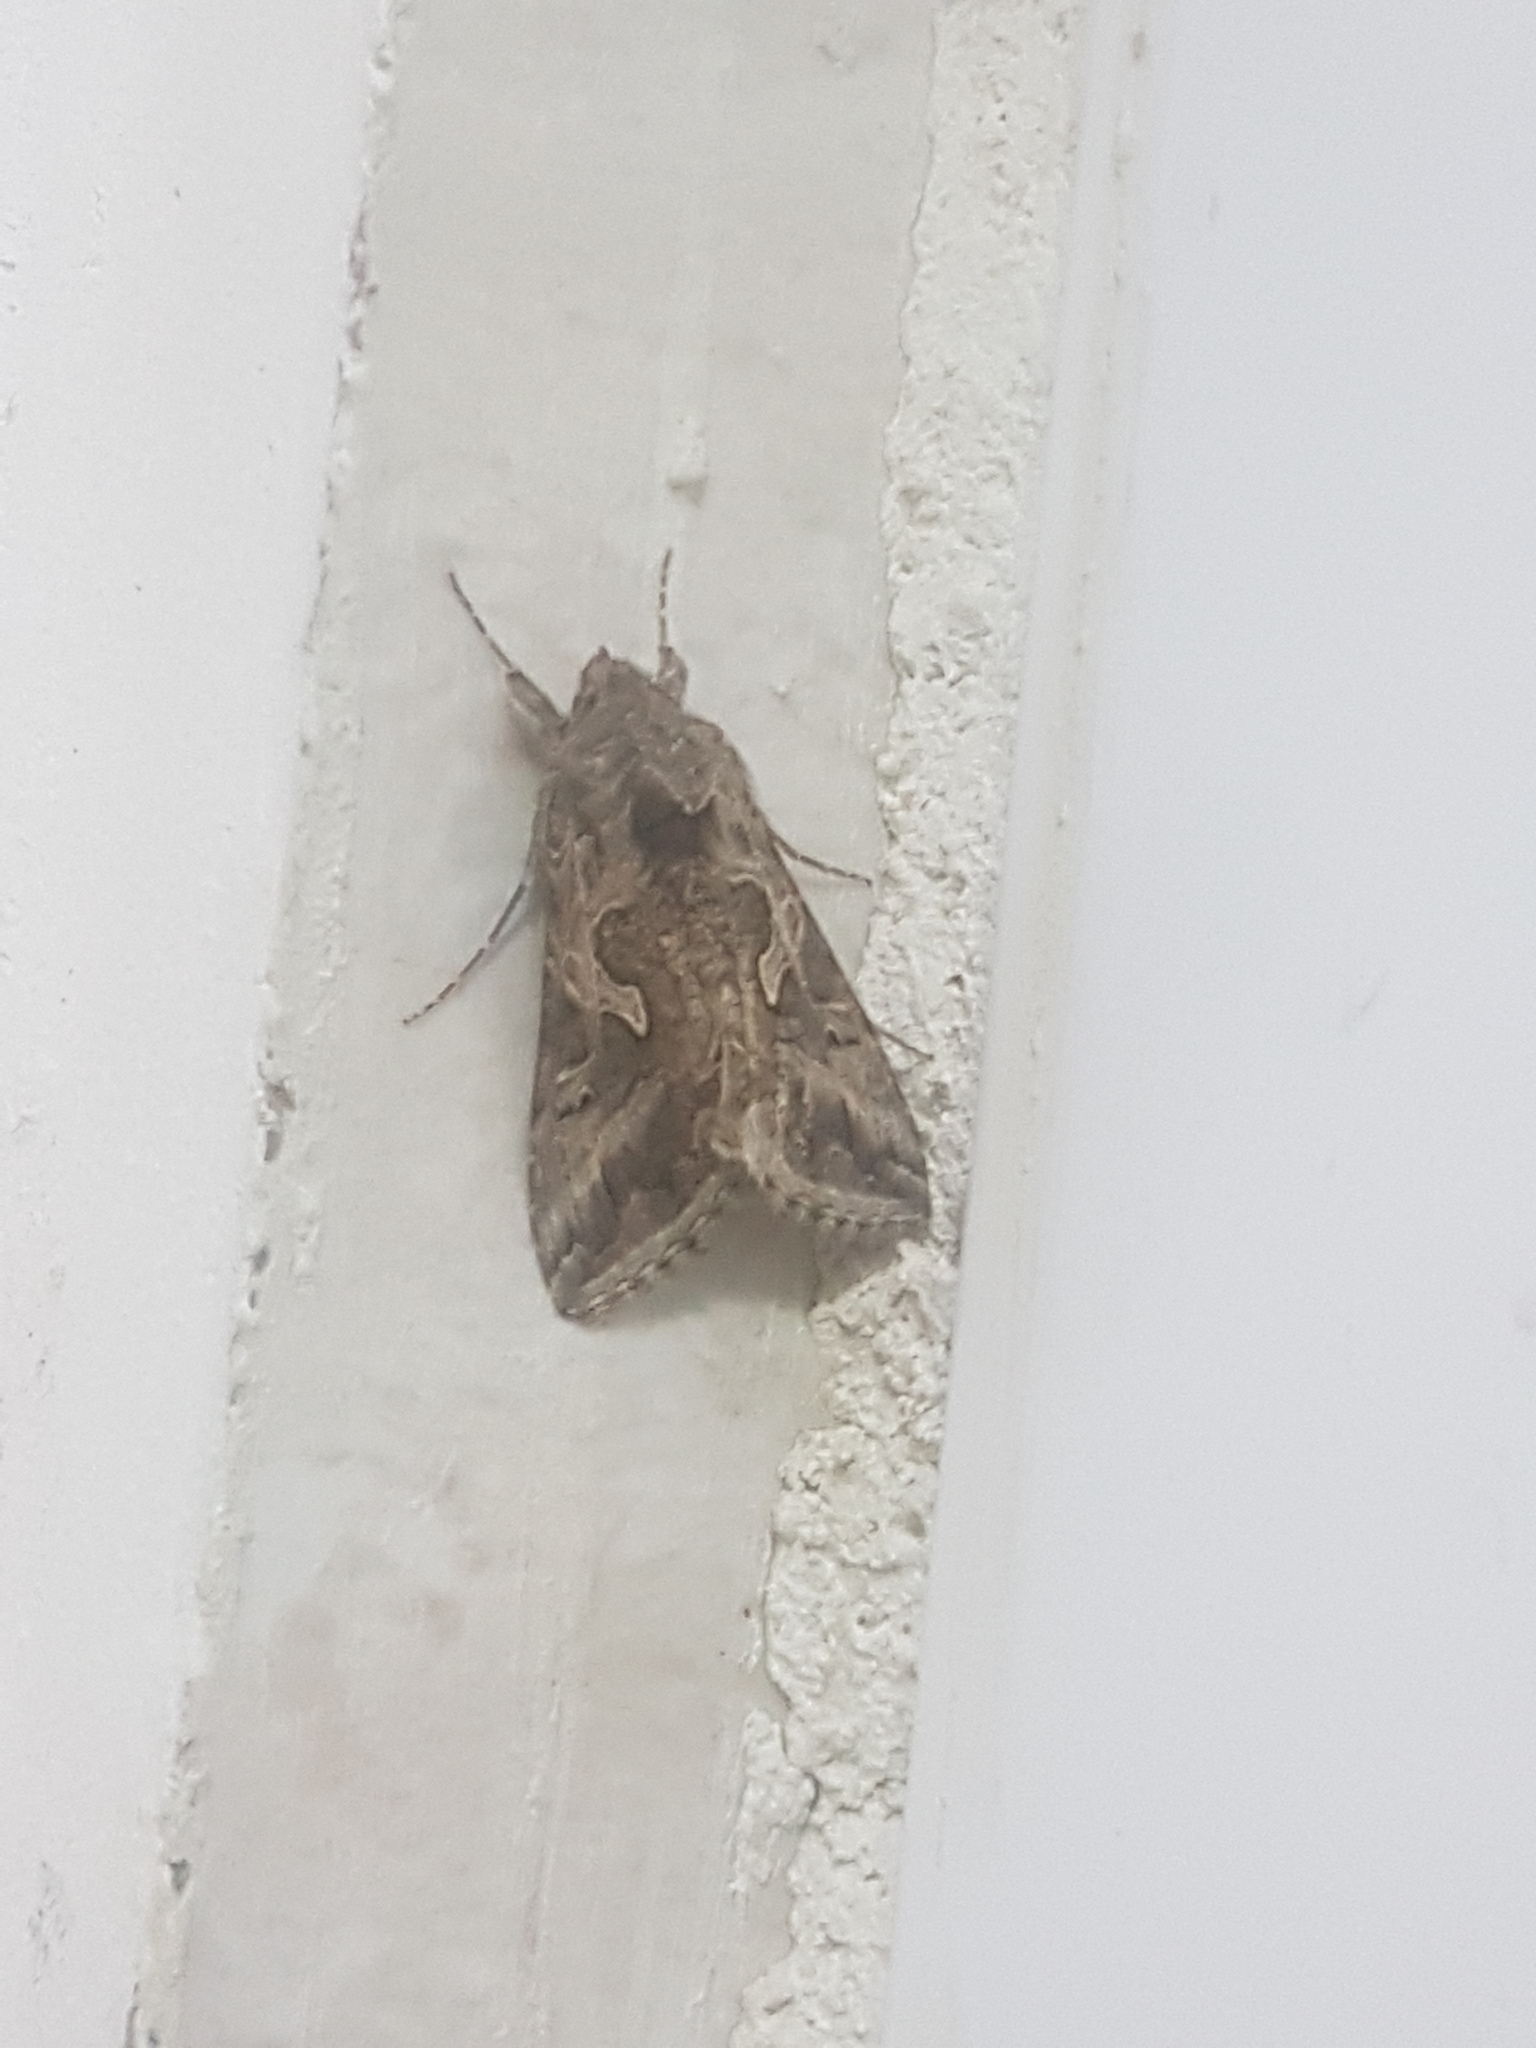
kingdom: Animalia
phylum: Arthropoda
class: Insecta
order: Lepidoptera
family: Noctuidae
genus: Cornutiplusia
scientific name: Cornutiplusia circumflexa
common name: Yorkshire y
